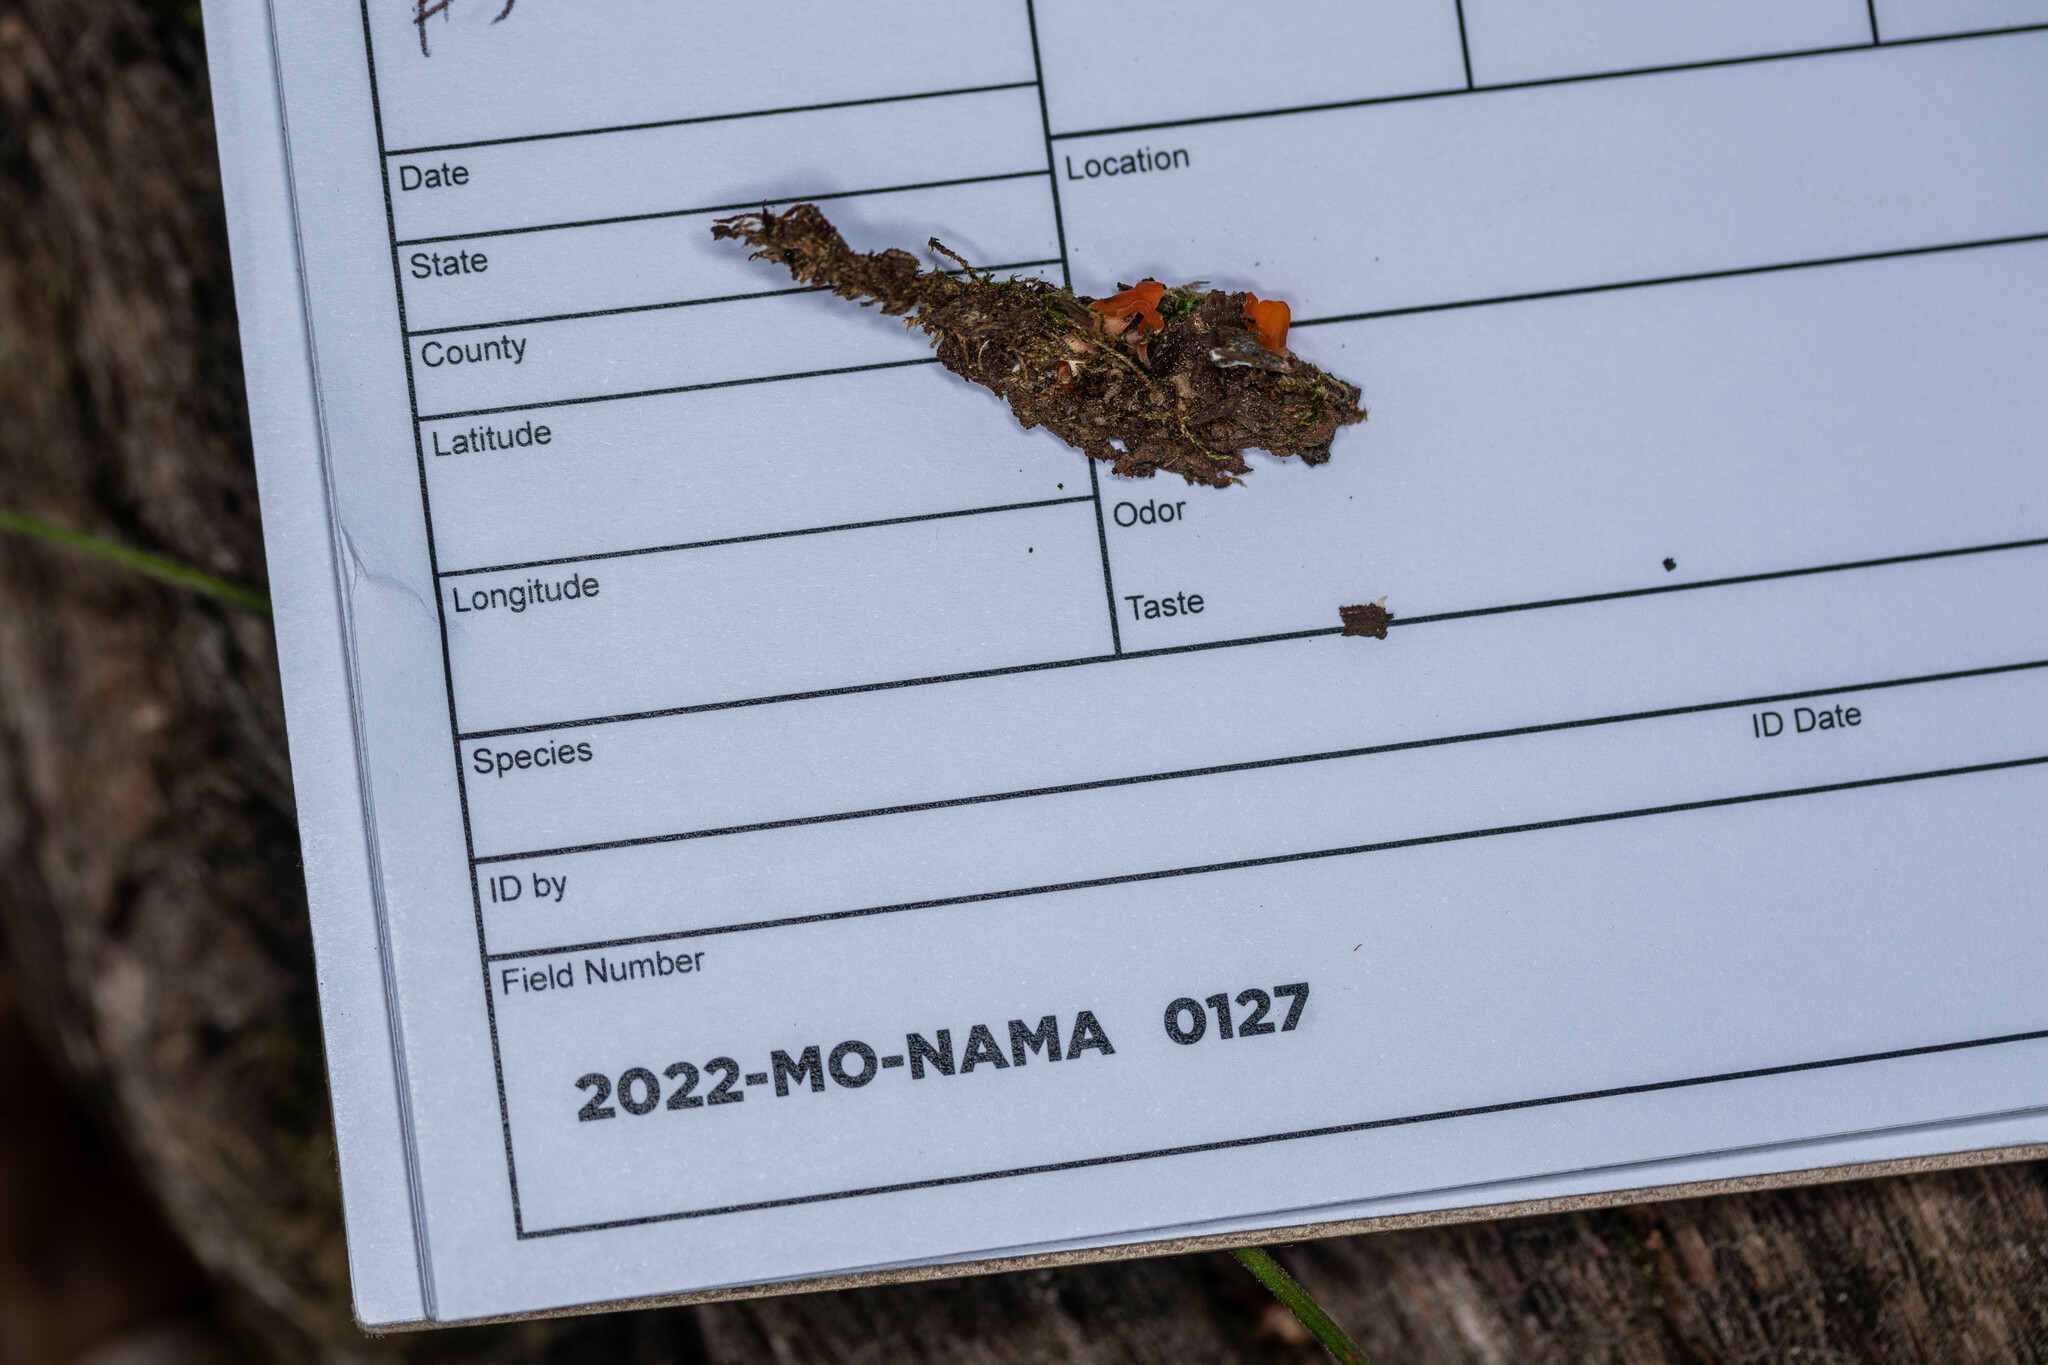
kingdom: Fungi
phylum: Basidiomycota
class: Dacrymycetes
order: Dacrymycetales
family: Dacrymycetaceae
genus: Dacrymyces
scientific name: Dacrymyces spathularius
